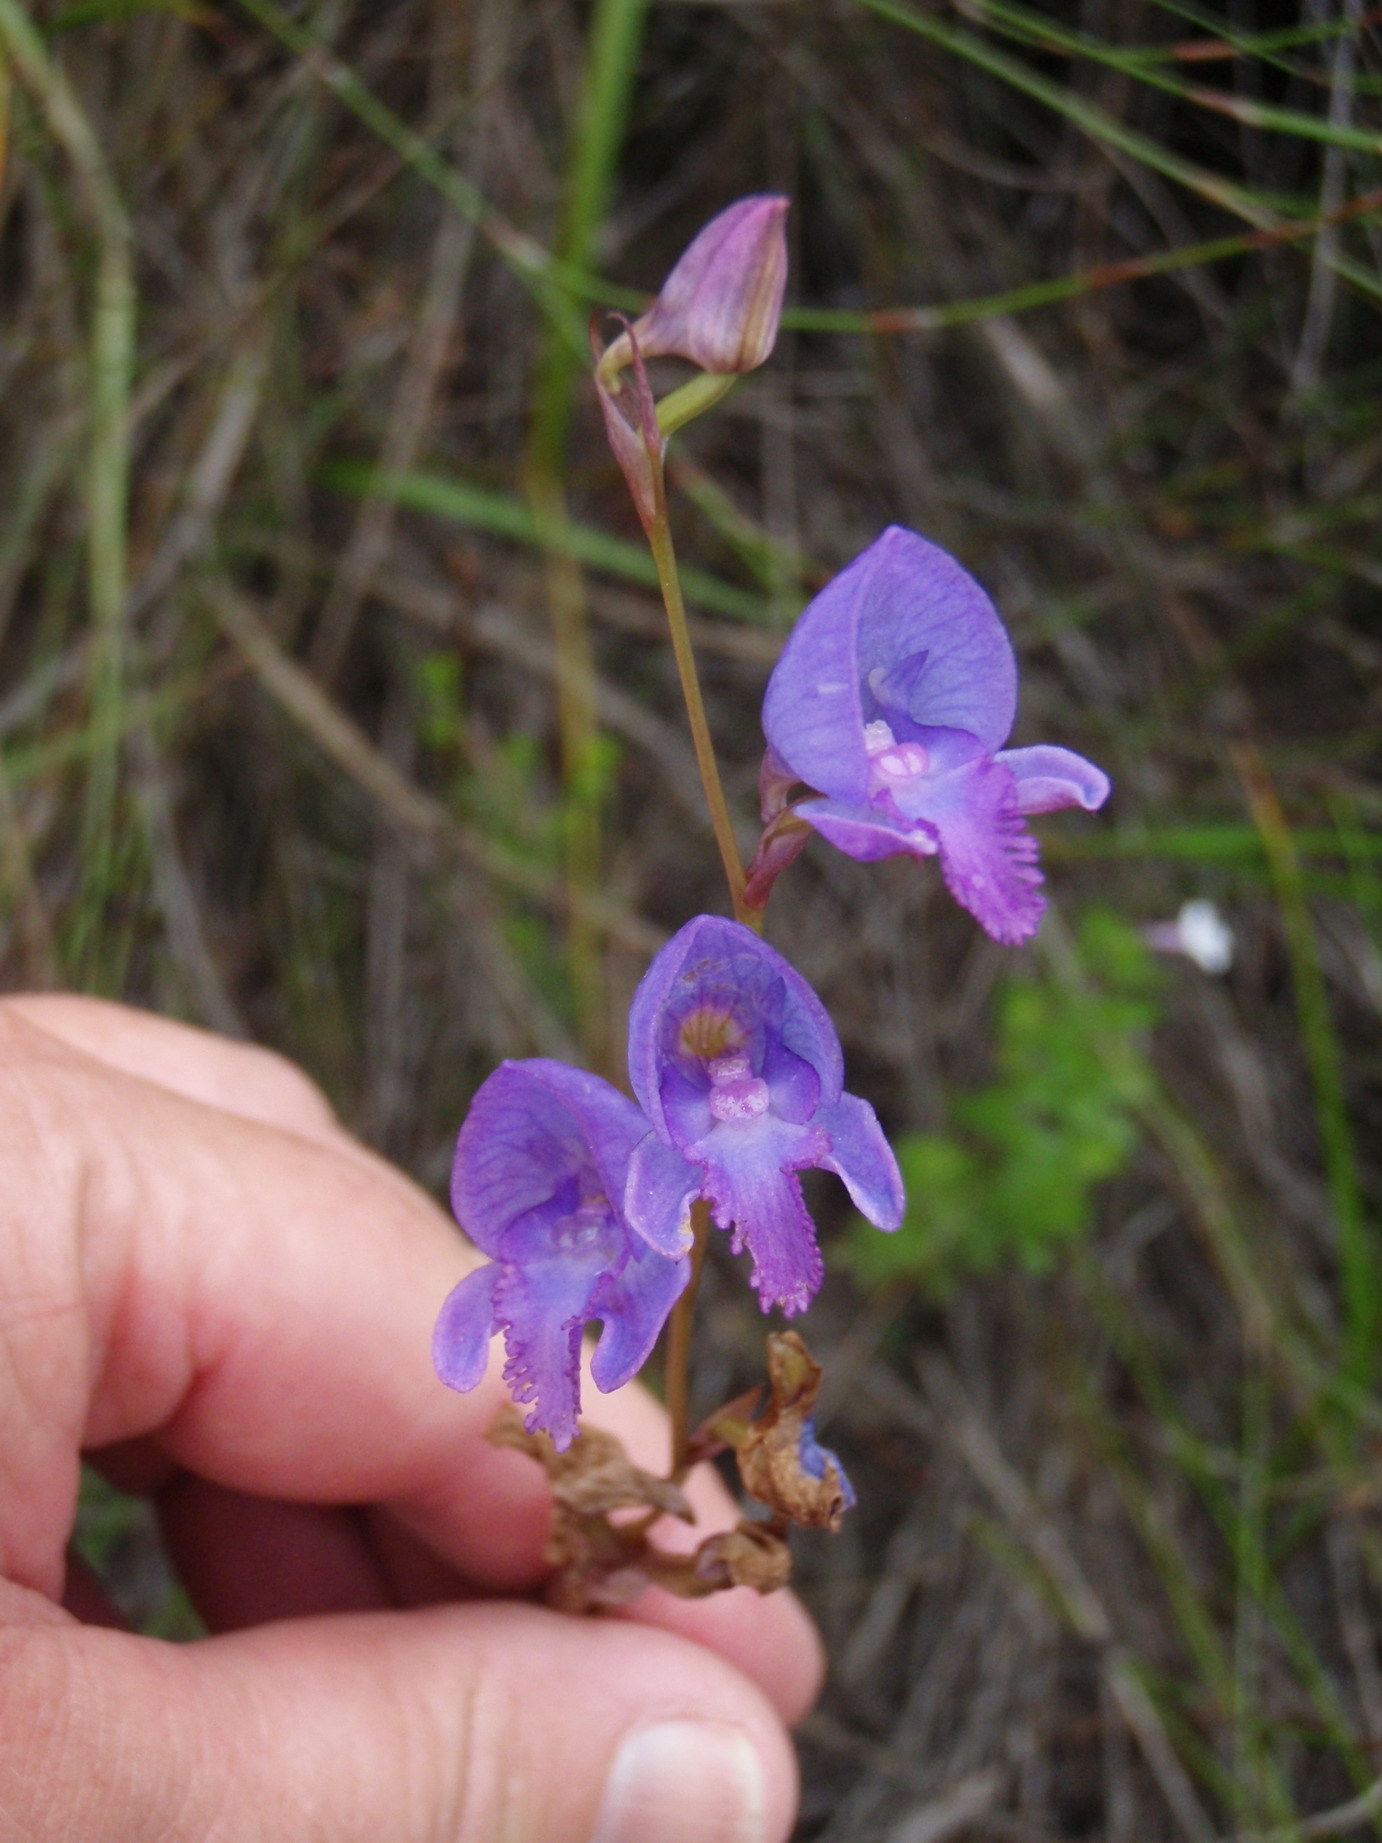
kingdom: Plantae
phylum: Tracheophyta
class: Liliopsida
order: Asparagales
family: Orchidaceae
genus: Disa
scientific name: Disa hians
